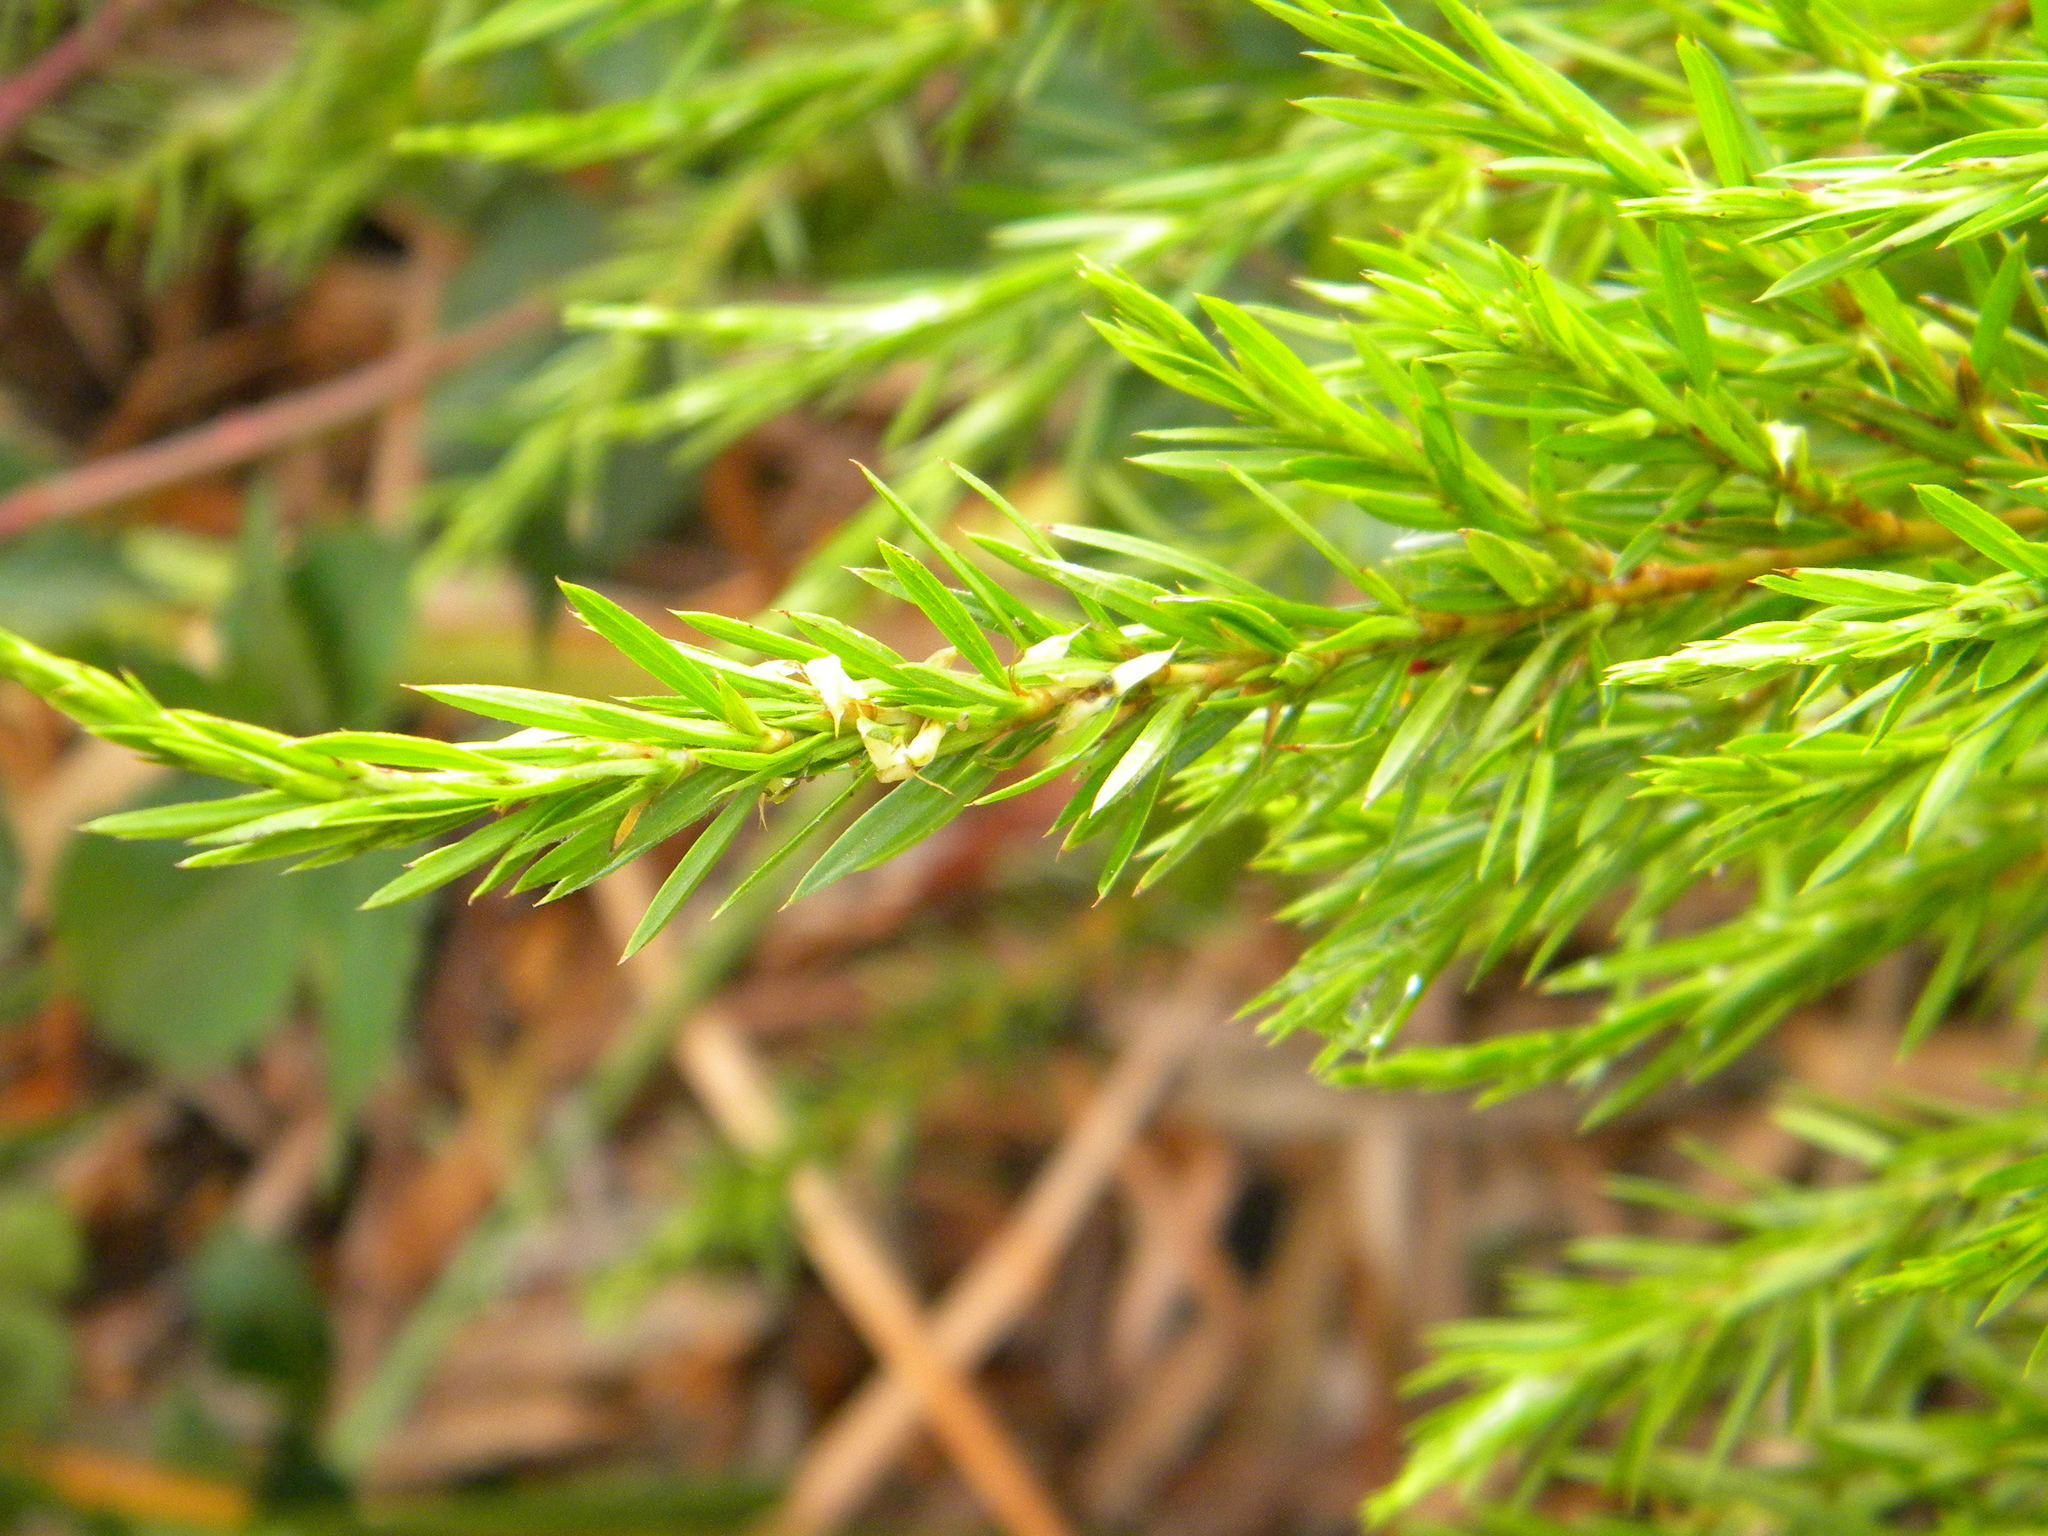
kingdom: Plantae
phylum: Tracheophyta
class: Magnoliopsida
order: Rosales
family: Rosaceae
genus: Cliffortia
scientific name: Cliffortia strobilifera
